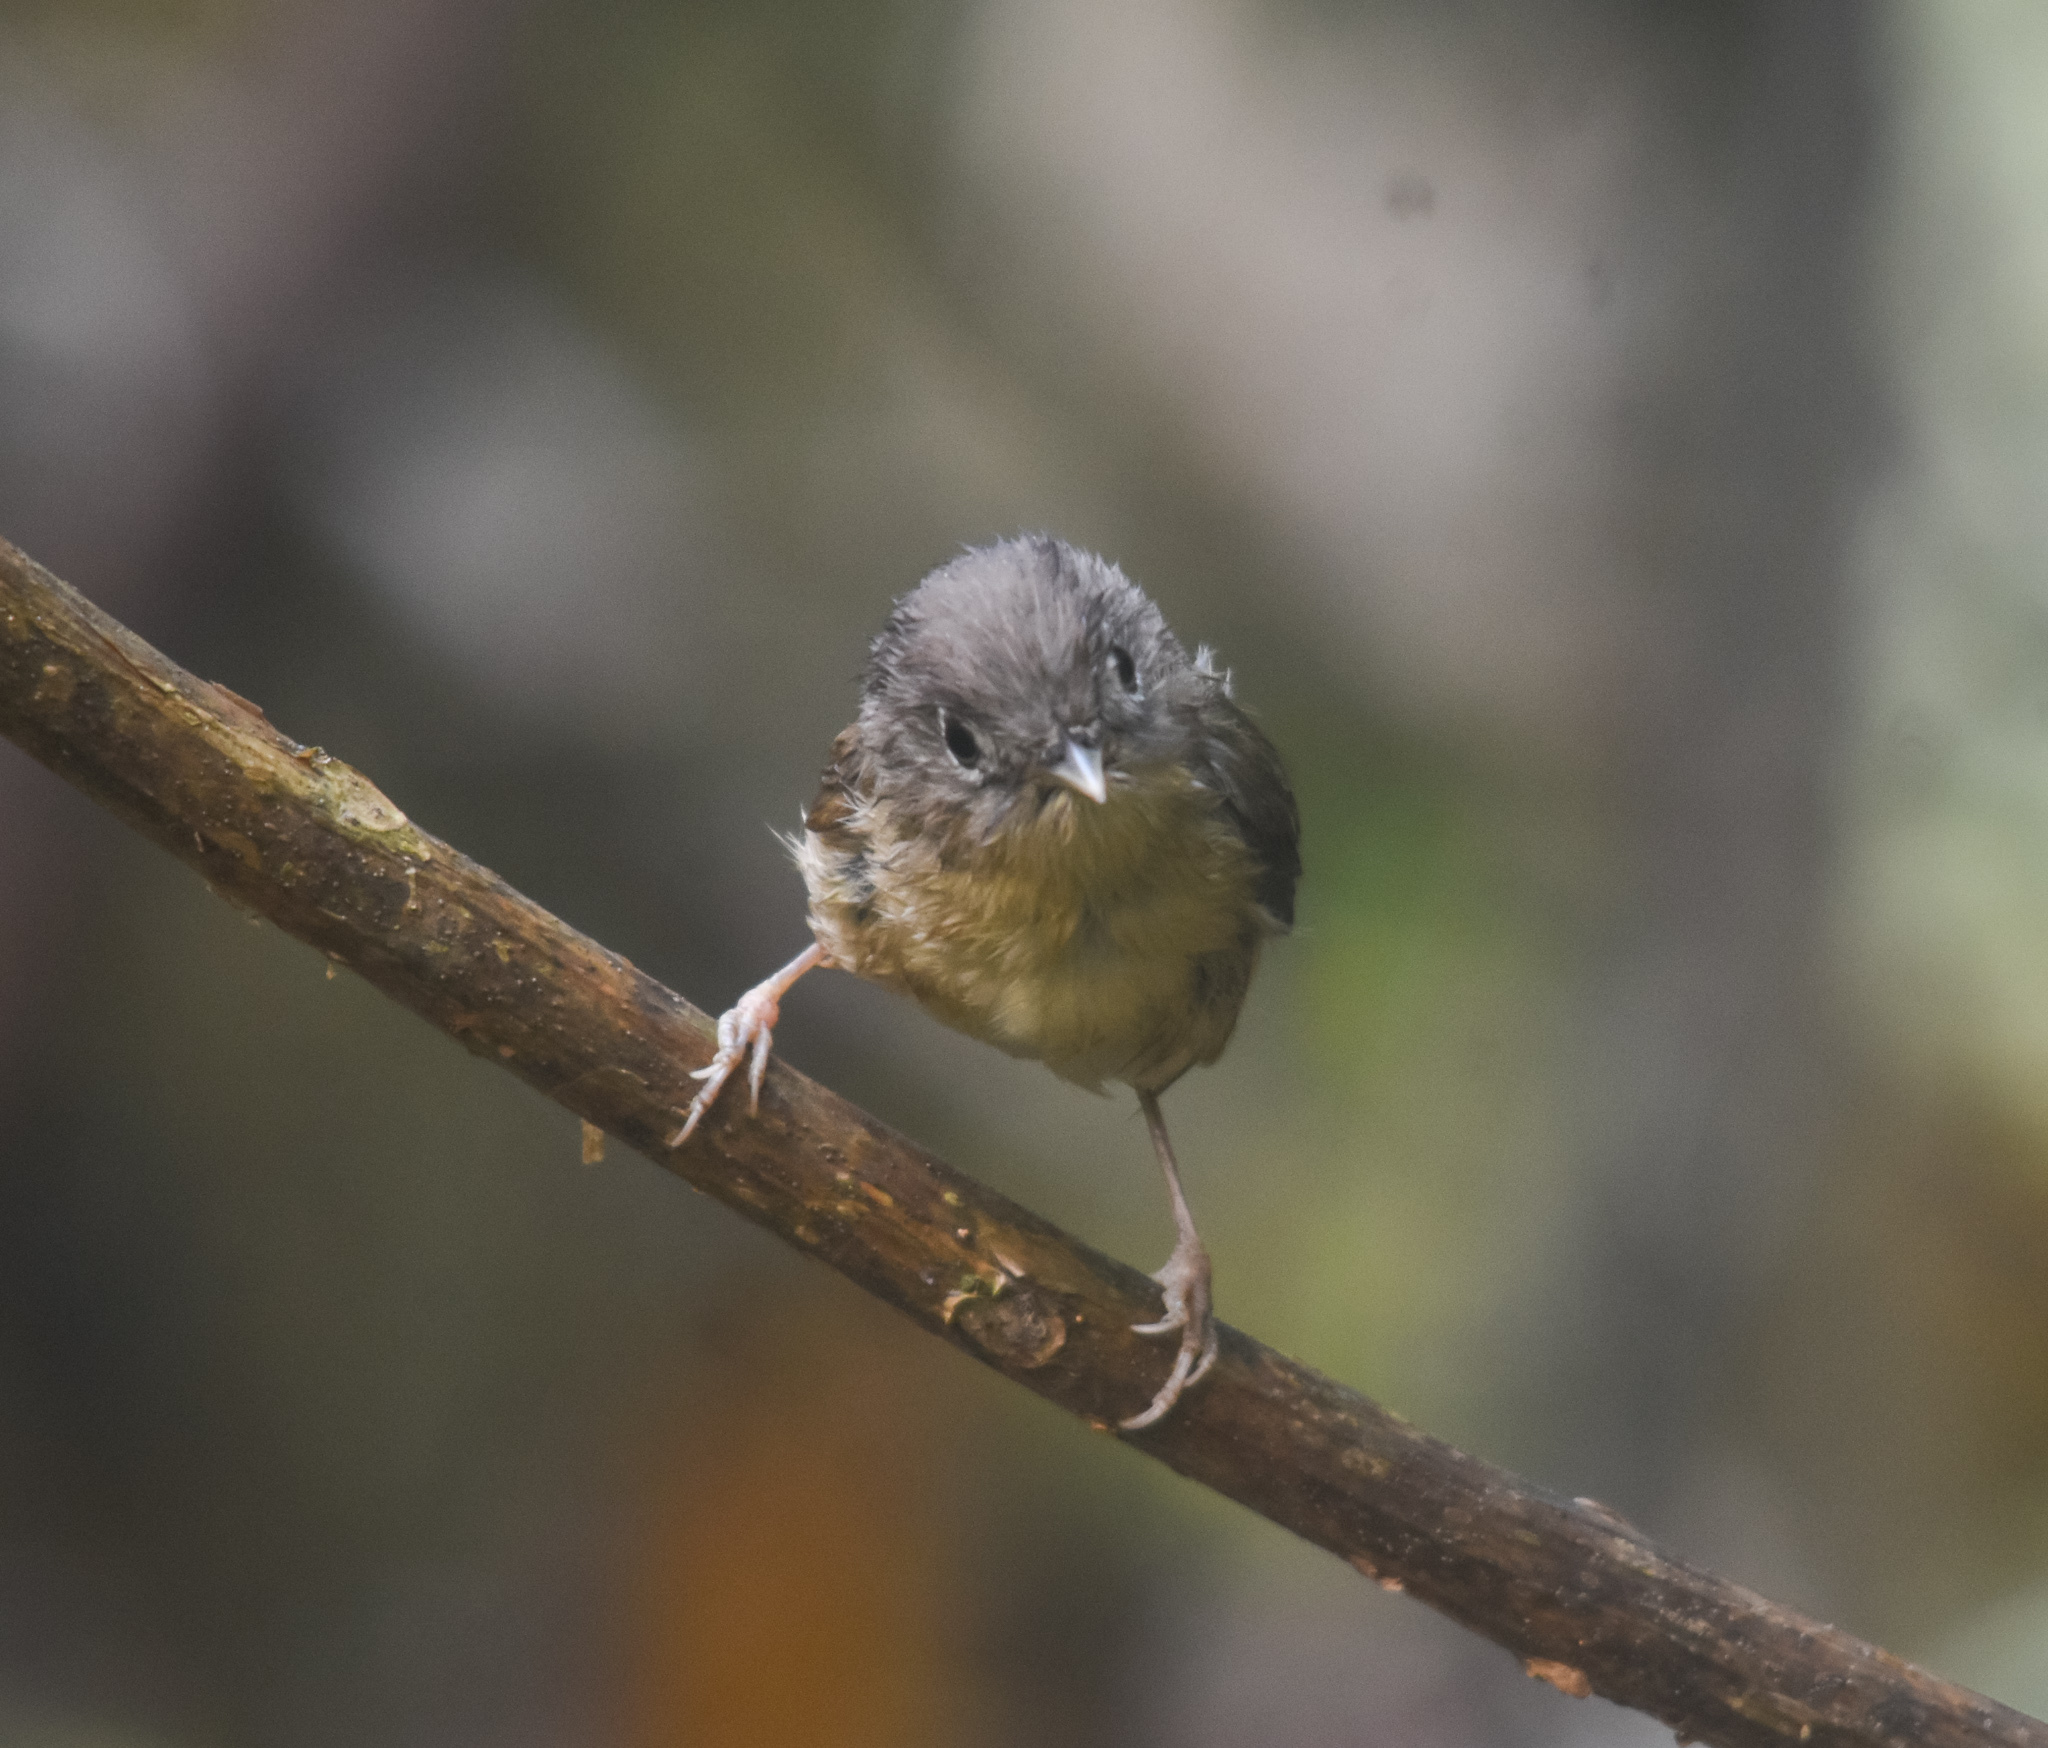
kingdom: Animalia
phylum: Chordata
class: Aves
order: Passeriformes
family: Pellorneidae
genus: Alcippe
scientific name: Alcippe nipalensis
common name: Nepal fulvetta
